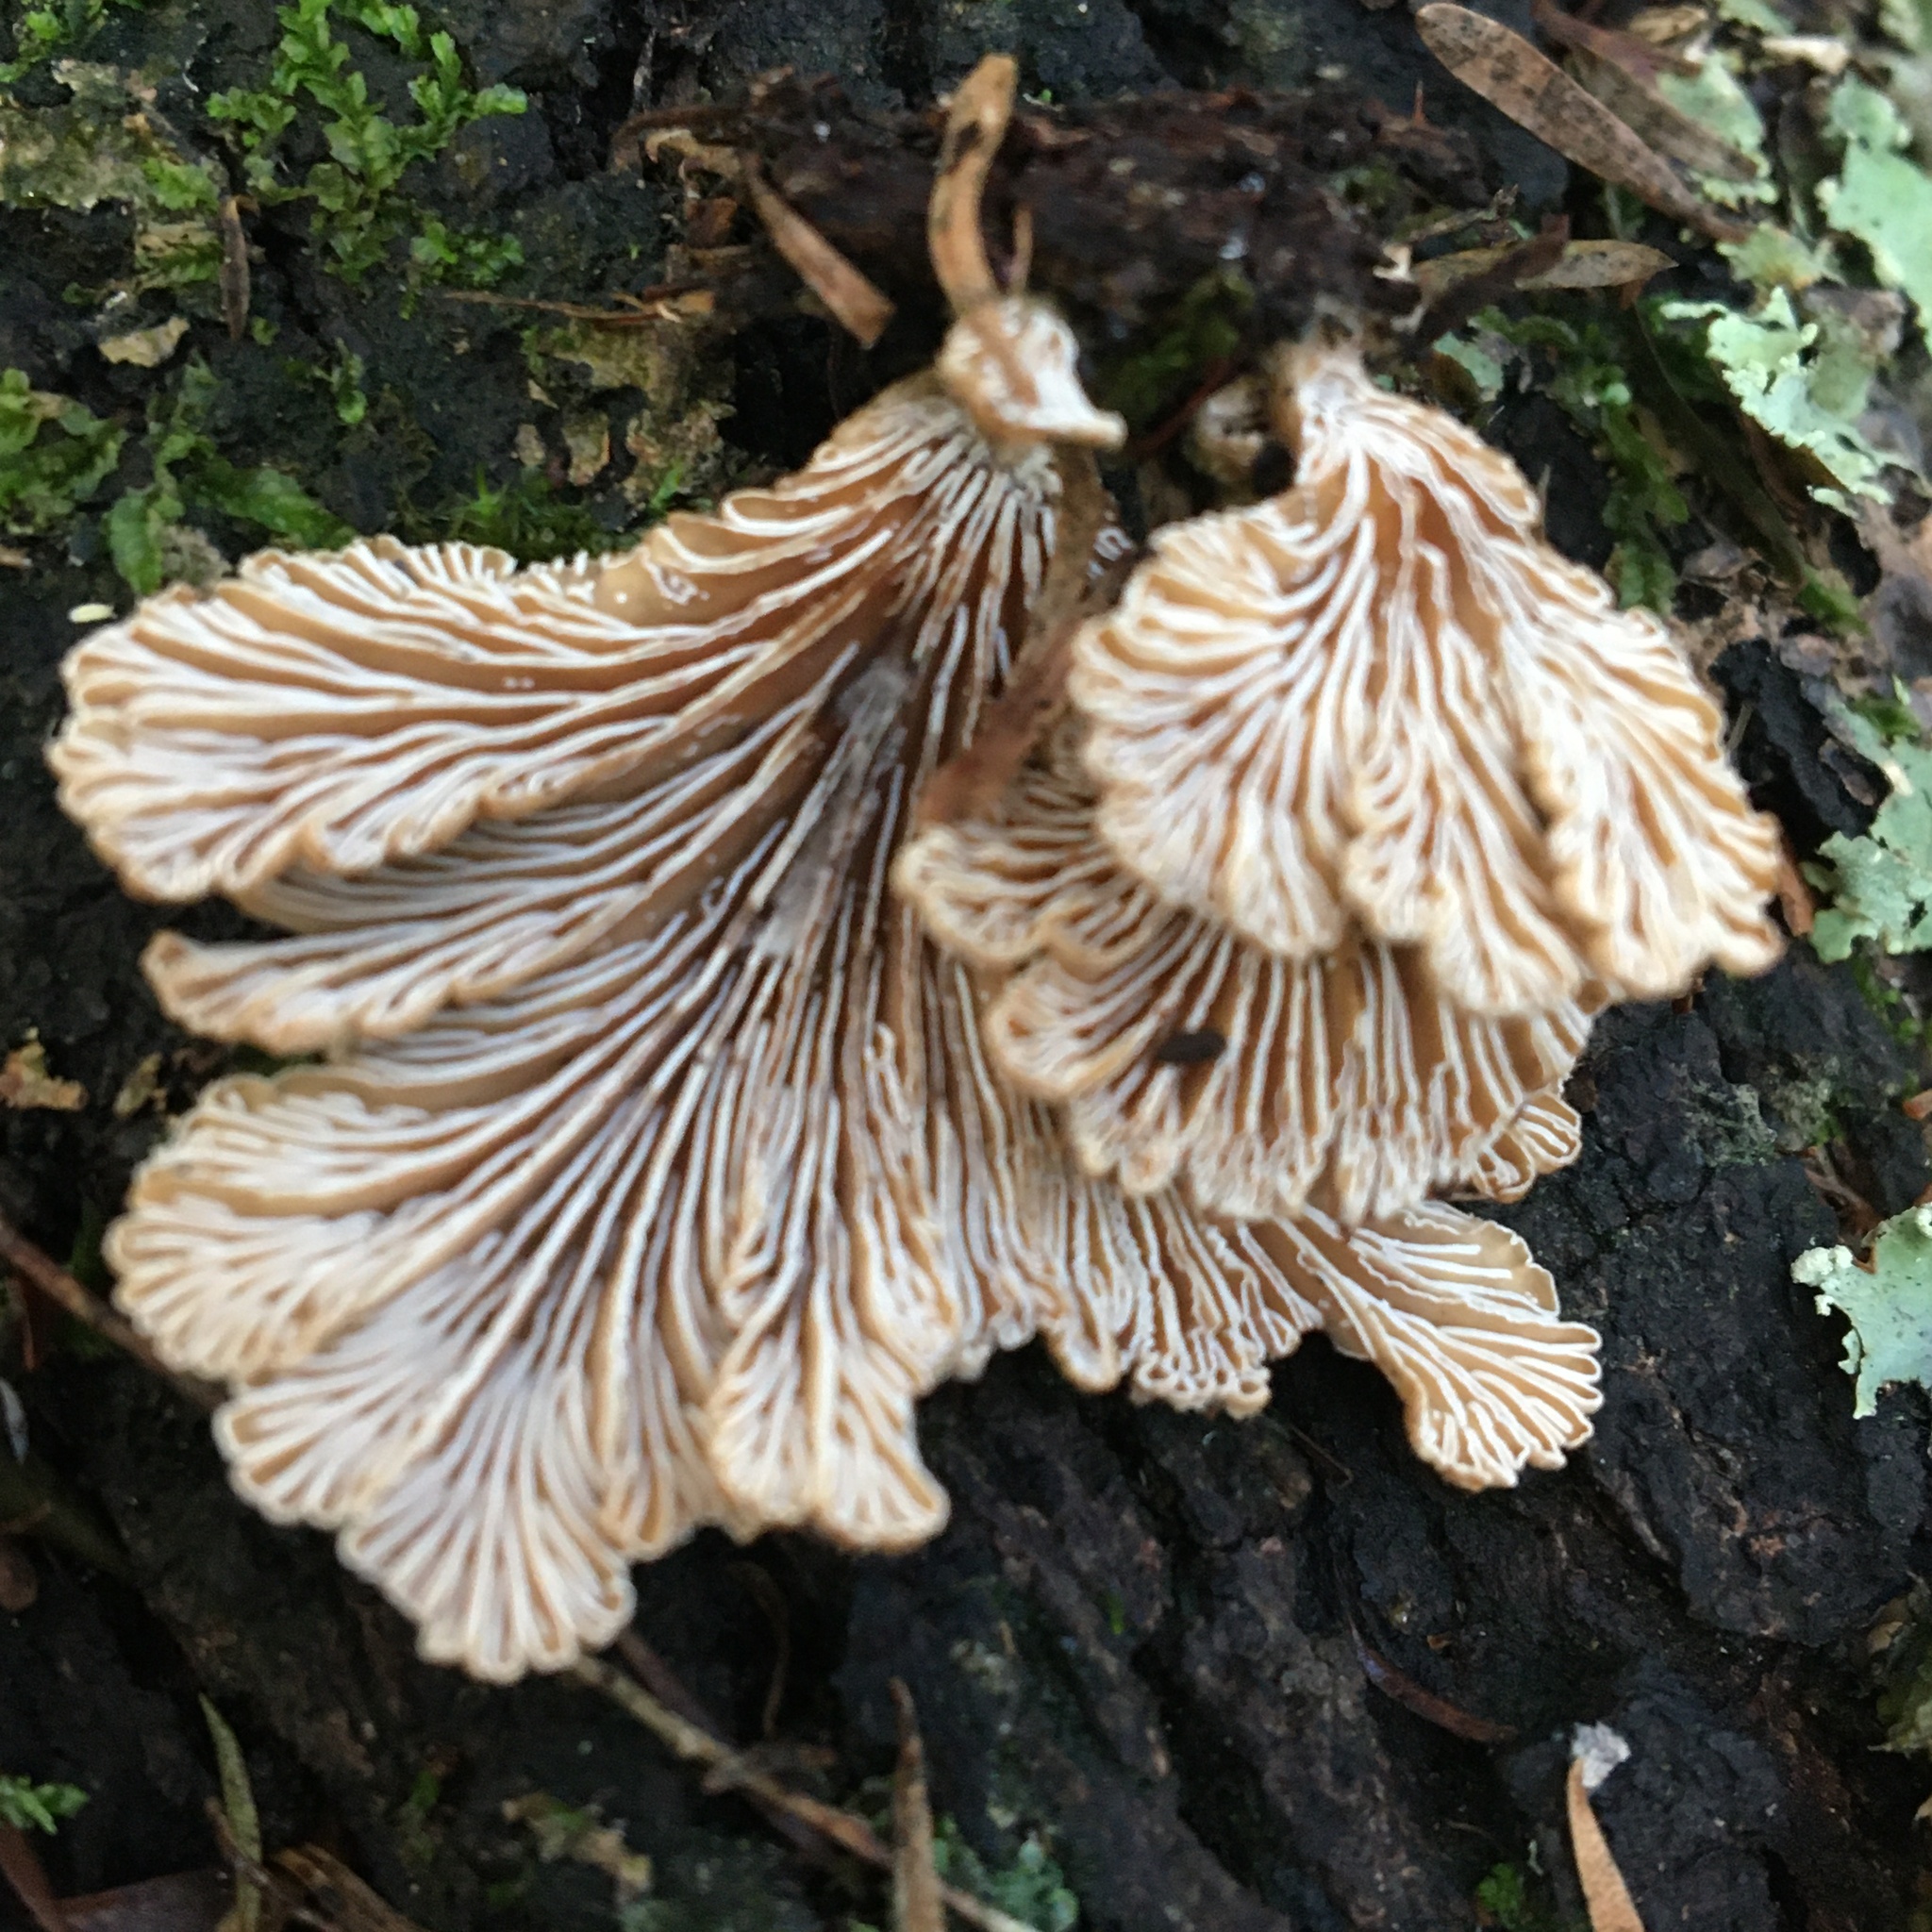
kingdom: Fungi
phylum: Basidiomycota
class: Agaricomycetes
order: Agaricales
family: Schizophyllaceae
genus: Schizophyllum
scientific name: Schizophyllum commune
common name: Common porecrust
